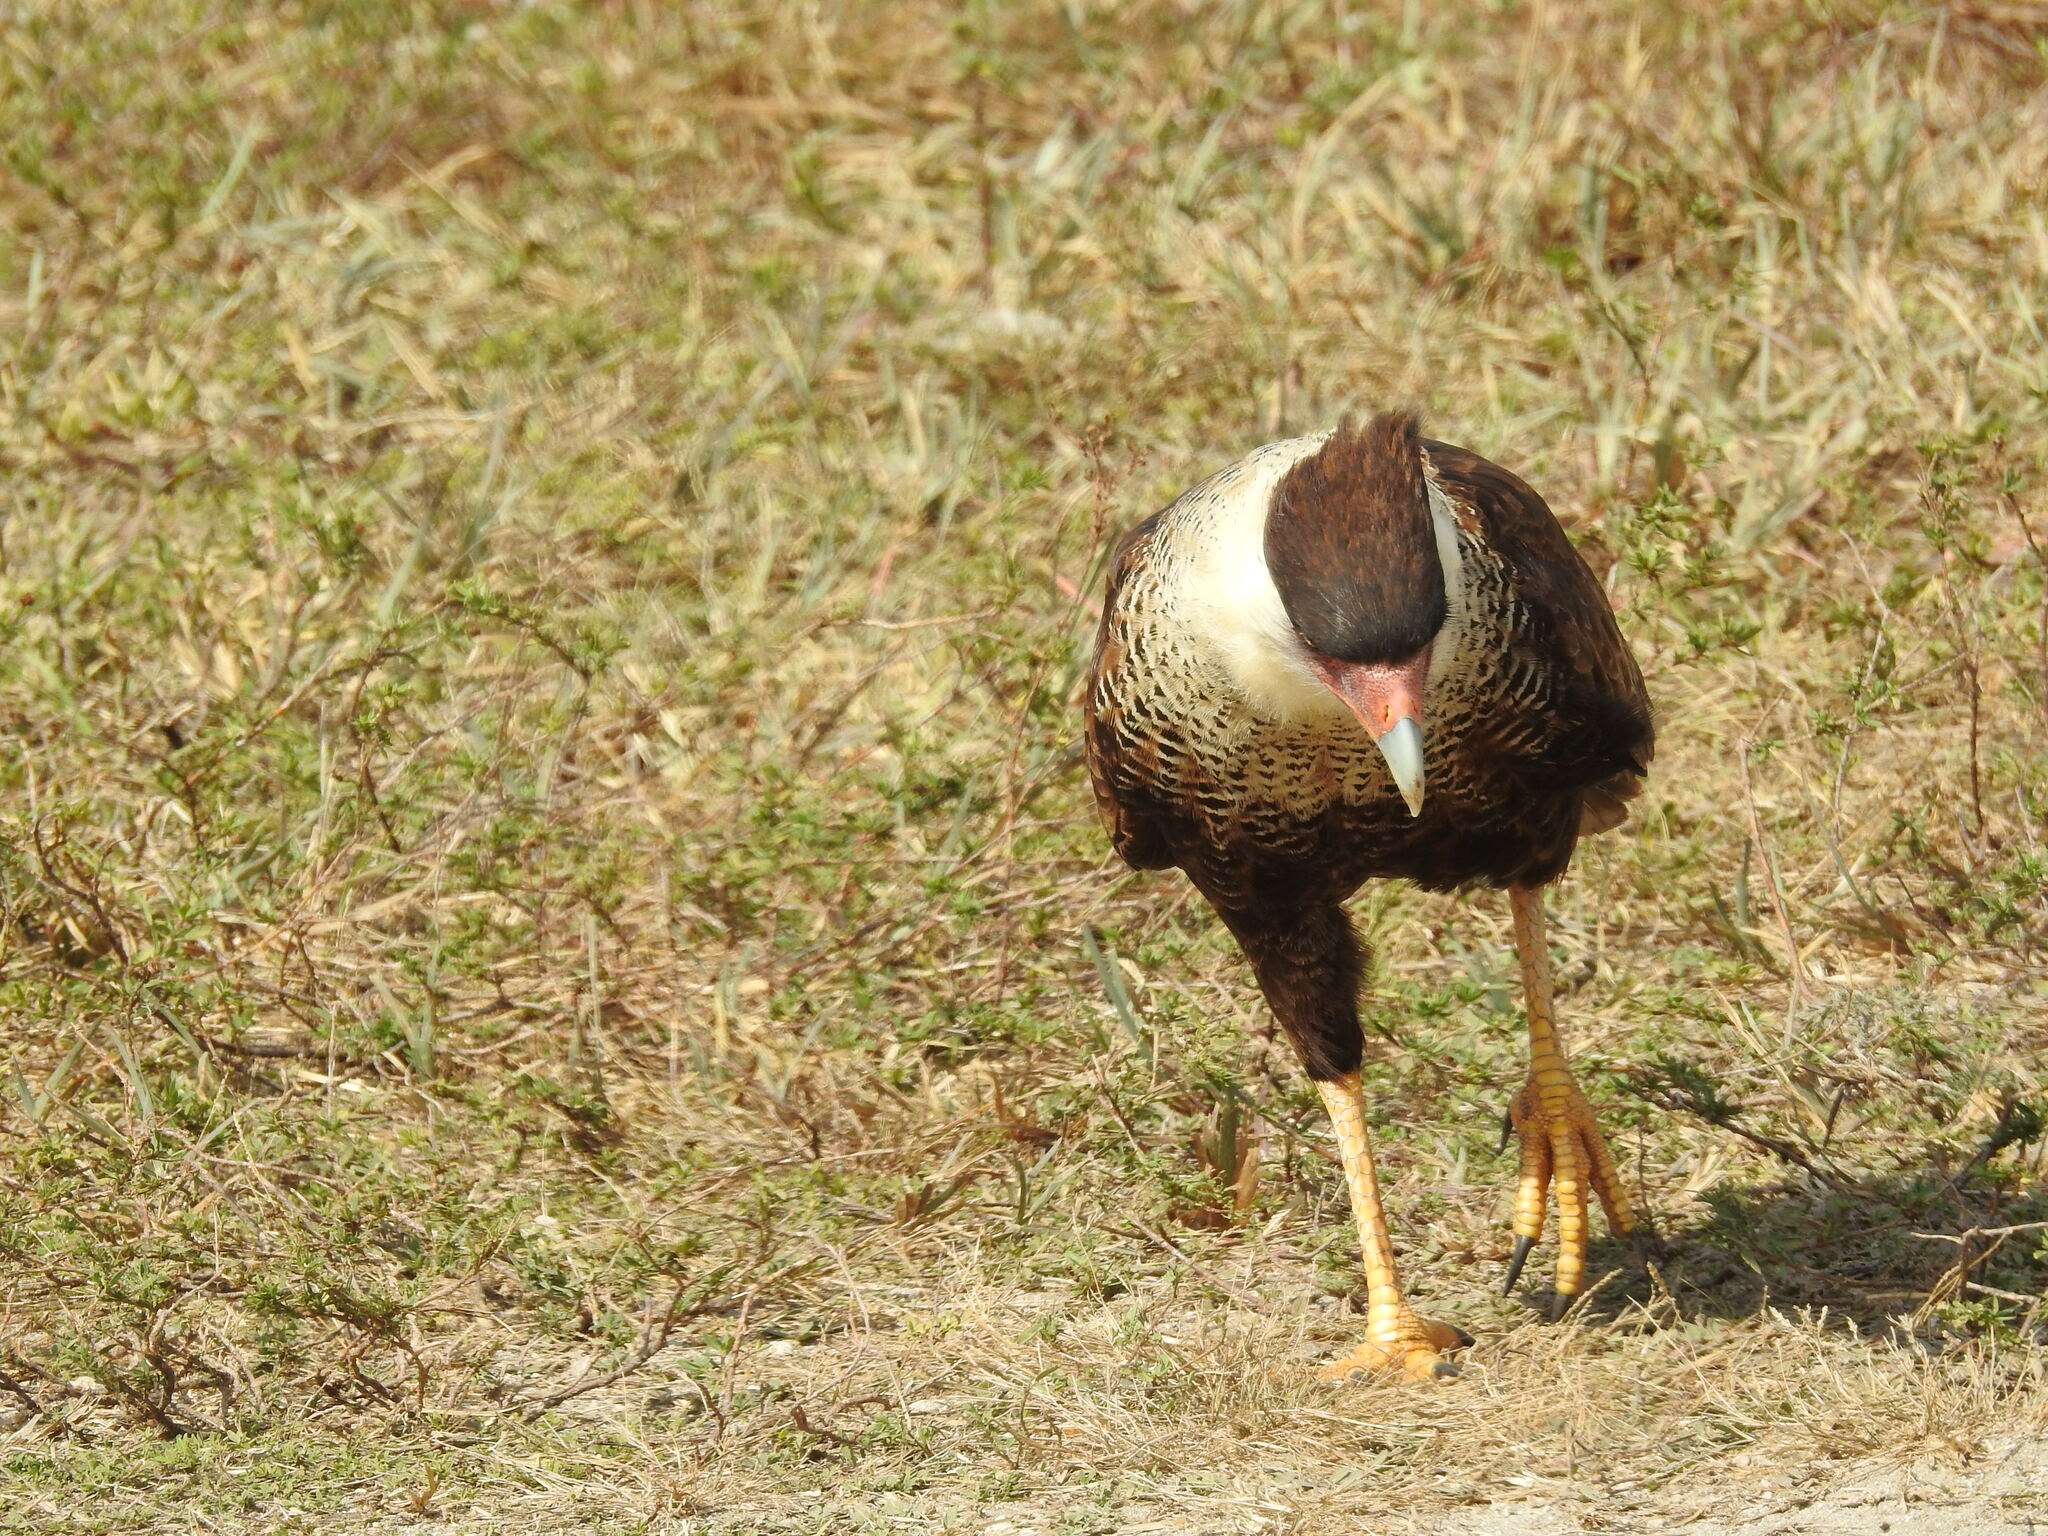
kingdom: Animalia
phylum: Chordata
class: Aves
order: Falconiformes
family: Falconidae
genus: Caracara
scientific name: Caracara plancus
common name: Southern caracara
